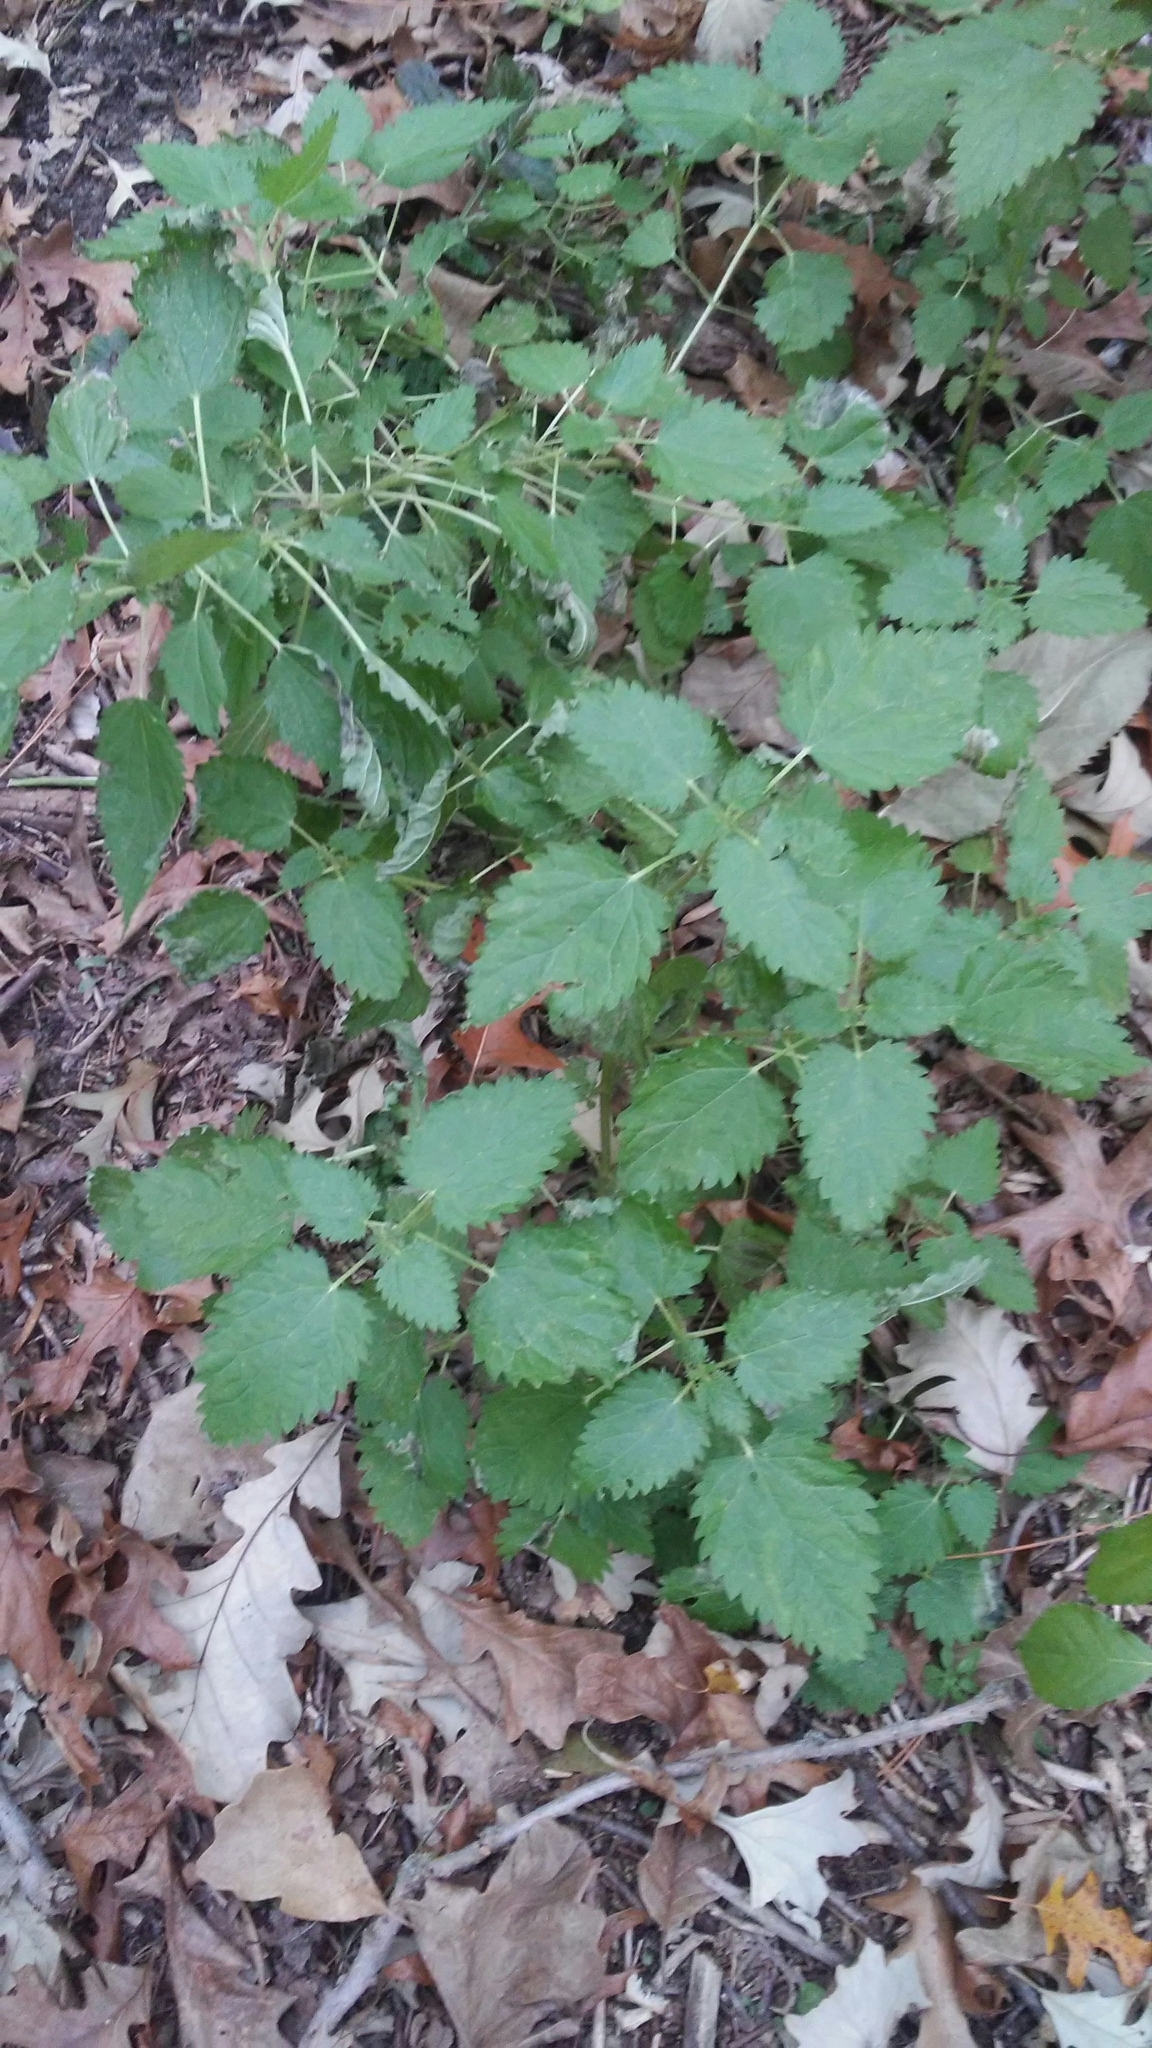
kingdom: Plantae
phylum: Tracheophyta
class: Magnoliopsida
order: Rosales
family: Urticaceae
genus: Laportea
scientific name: Laportea canadensis
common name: Canada nettle
